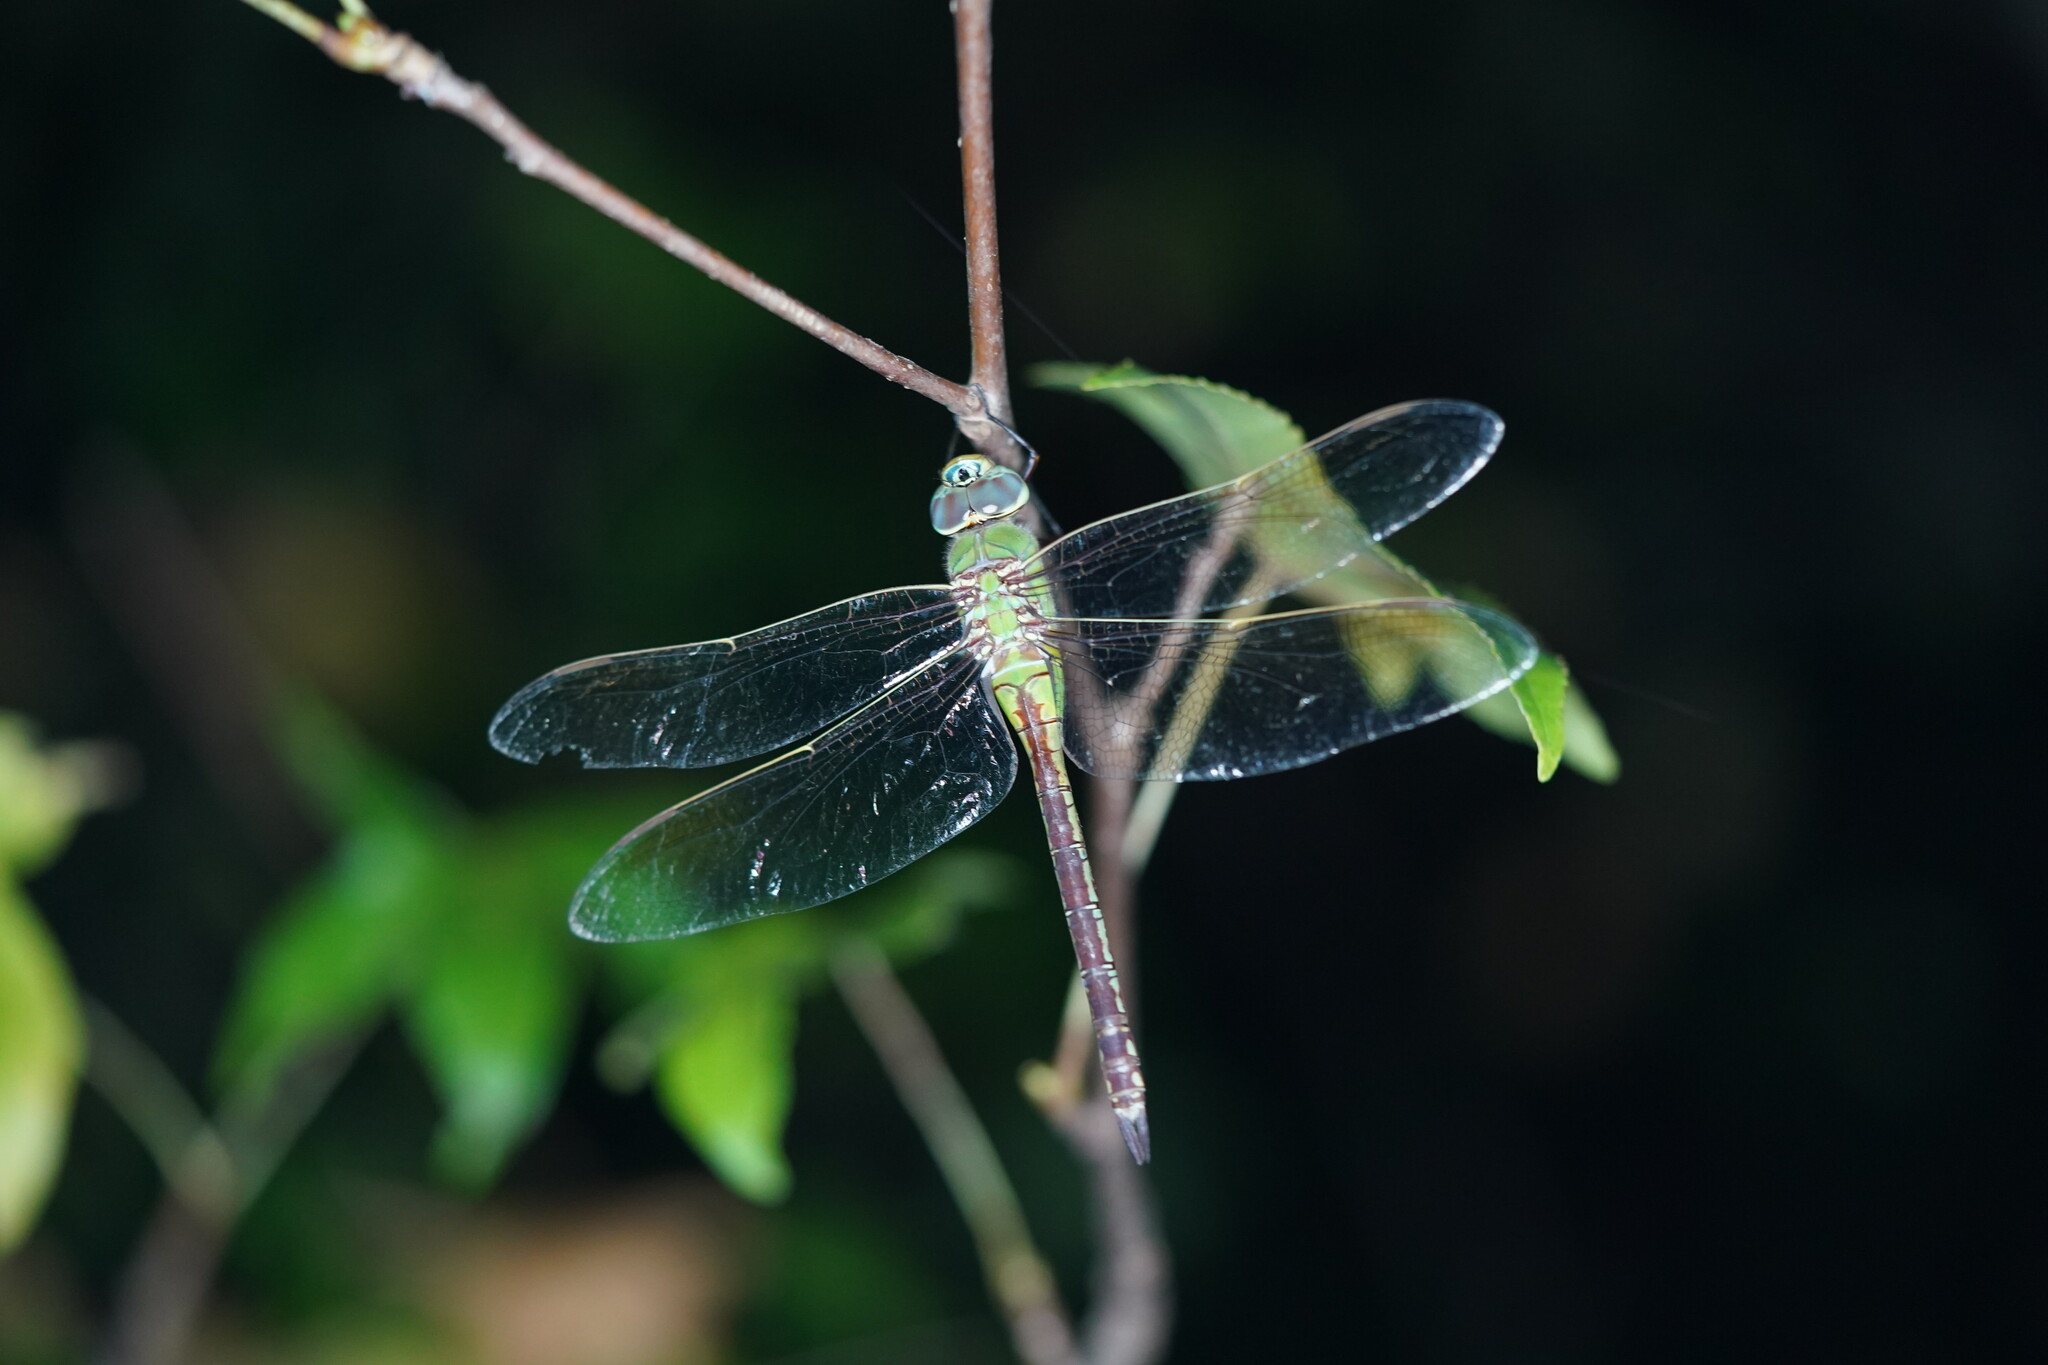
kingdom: Animalia
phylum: Arthropoda
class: Insecta
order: Odonata
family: Aeshnidae
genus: Anax
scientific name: Anax junius
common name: Common green darner
